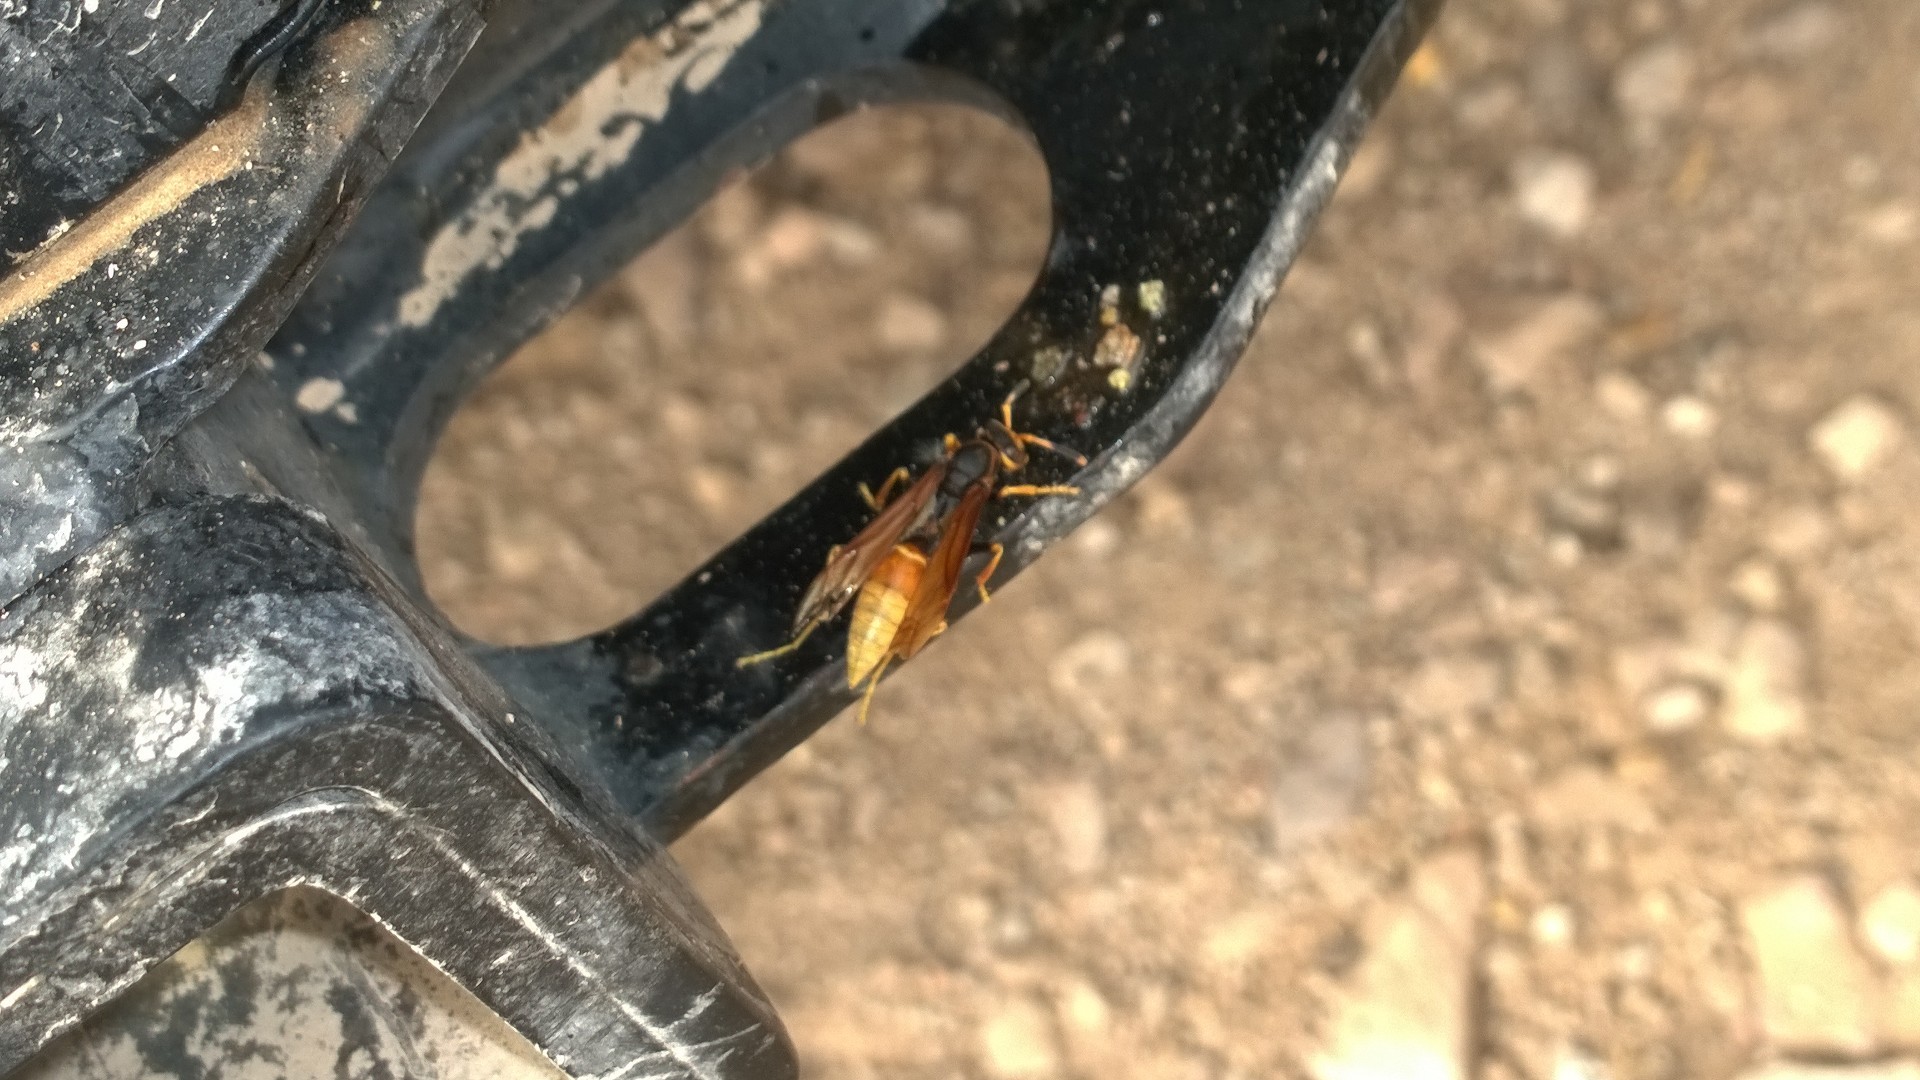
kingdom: Animalia
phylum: Arthropoda
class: Insecta
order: Hymenoptera
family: Eumenidae
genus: Polistes
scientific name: Polistes comanchus
